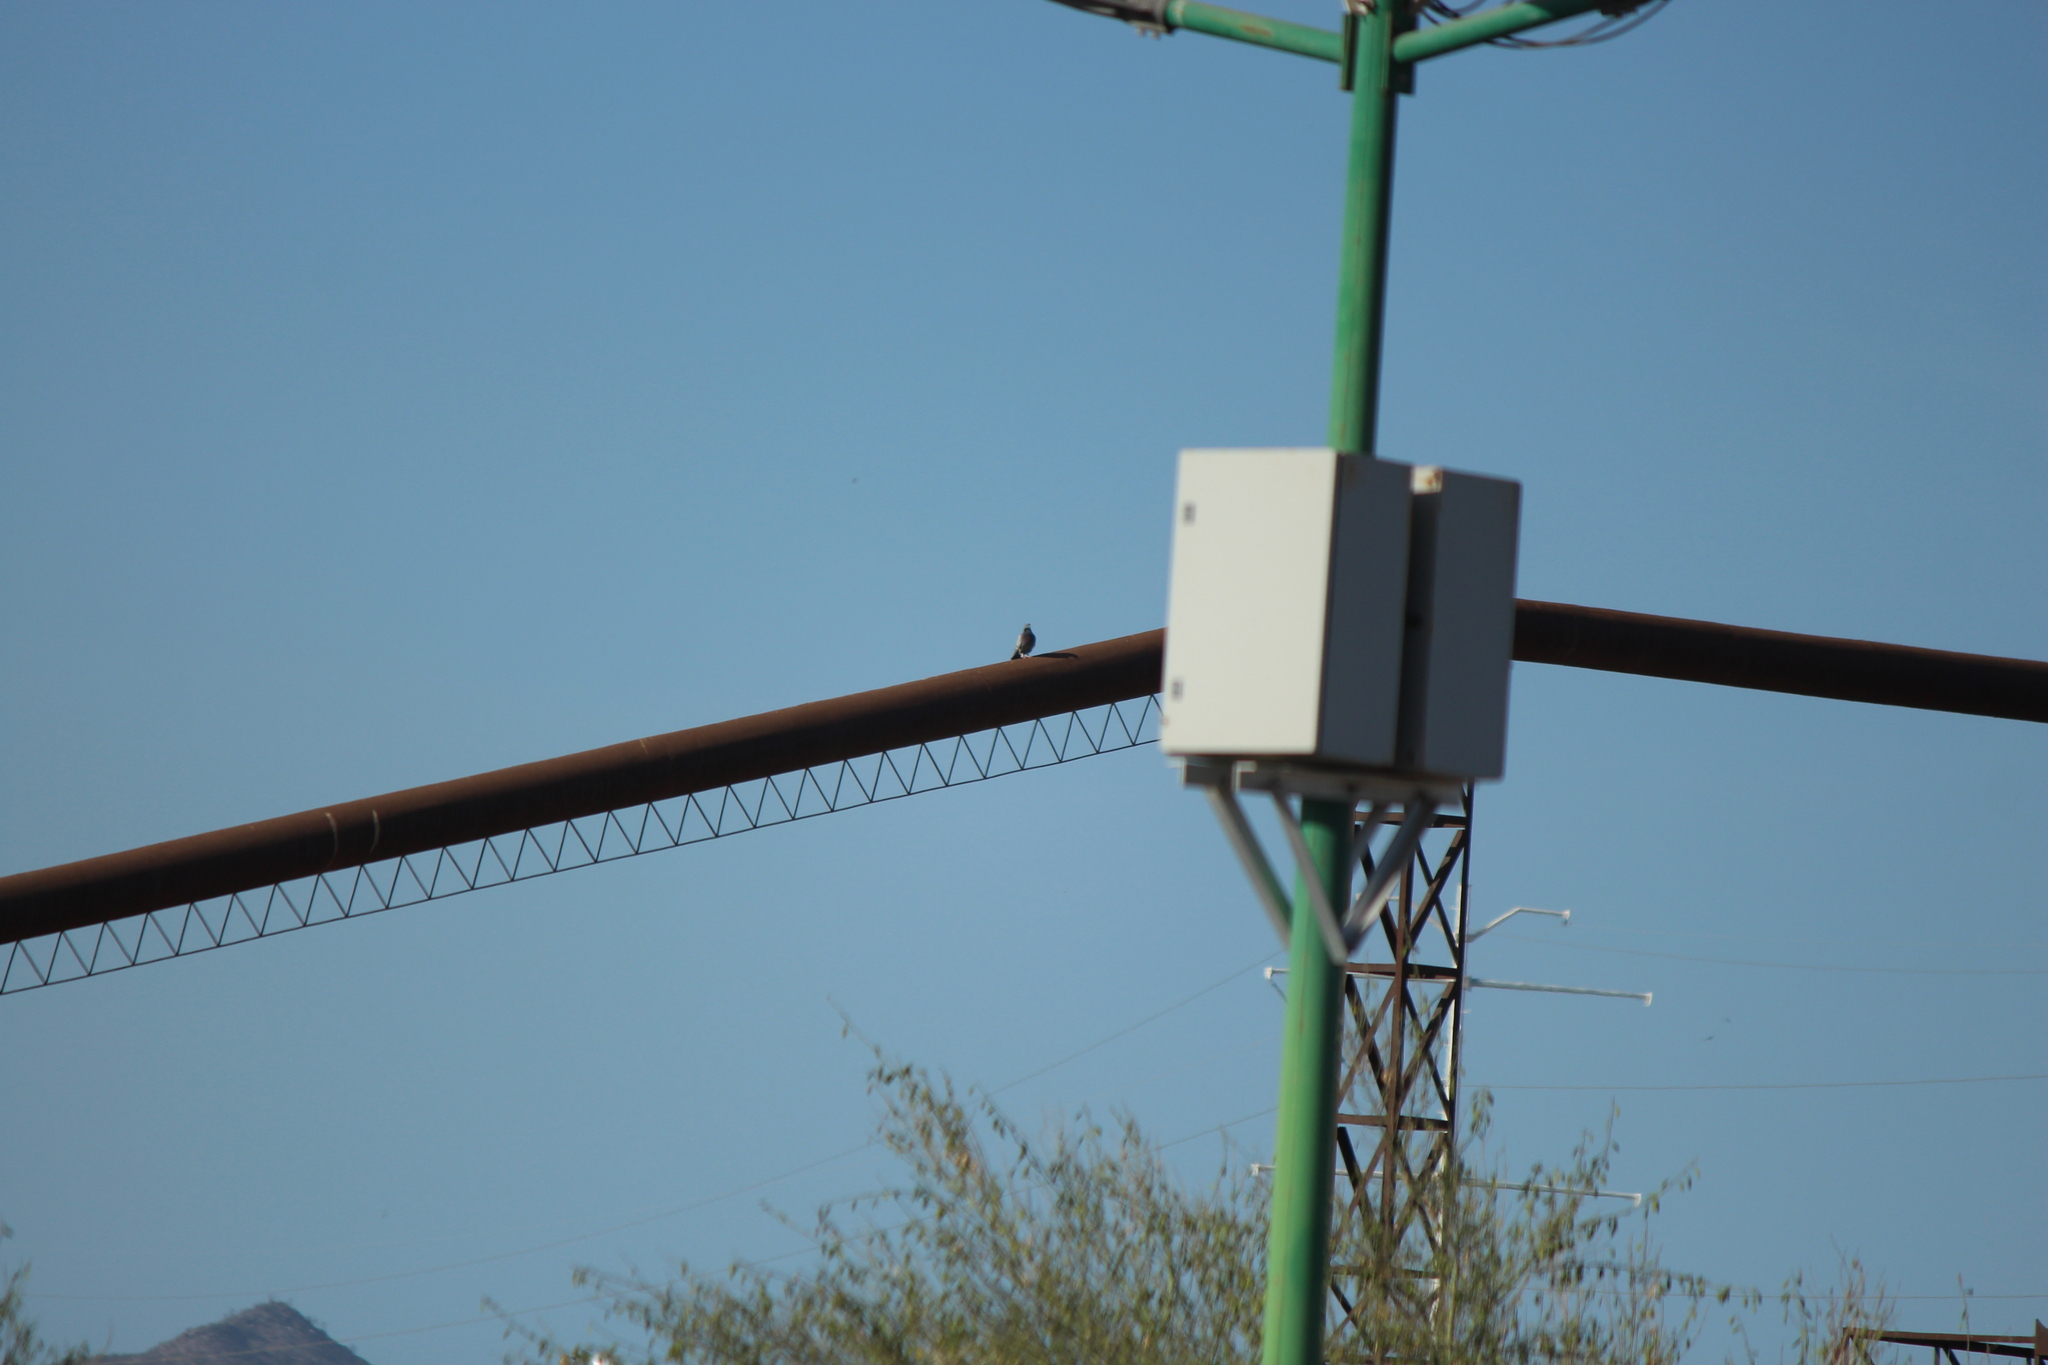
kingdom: Animalia
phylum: Chordata
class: Aves
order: Columbiformes
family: Columbidae
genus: Columba
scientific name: Columba livia
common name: Rock pigeon
